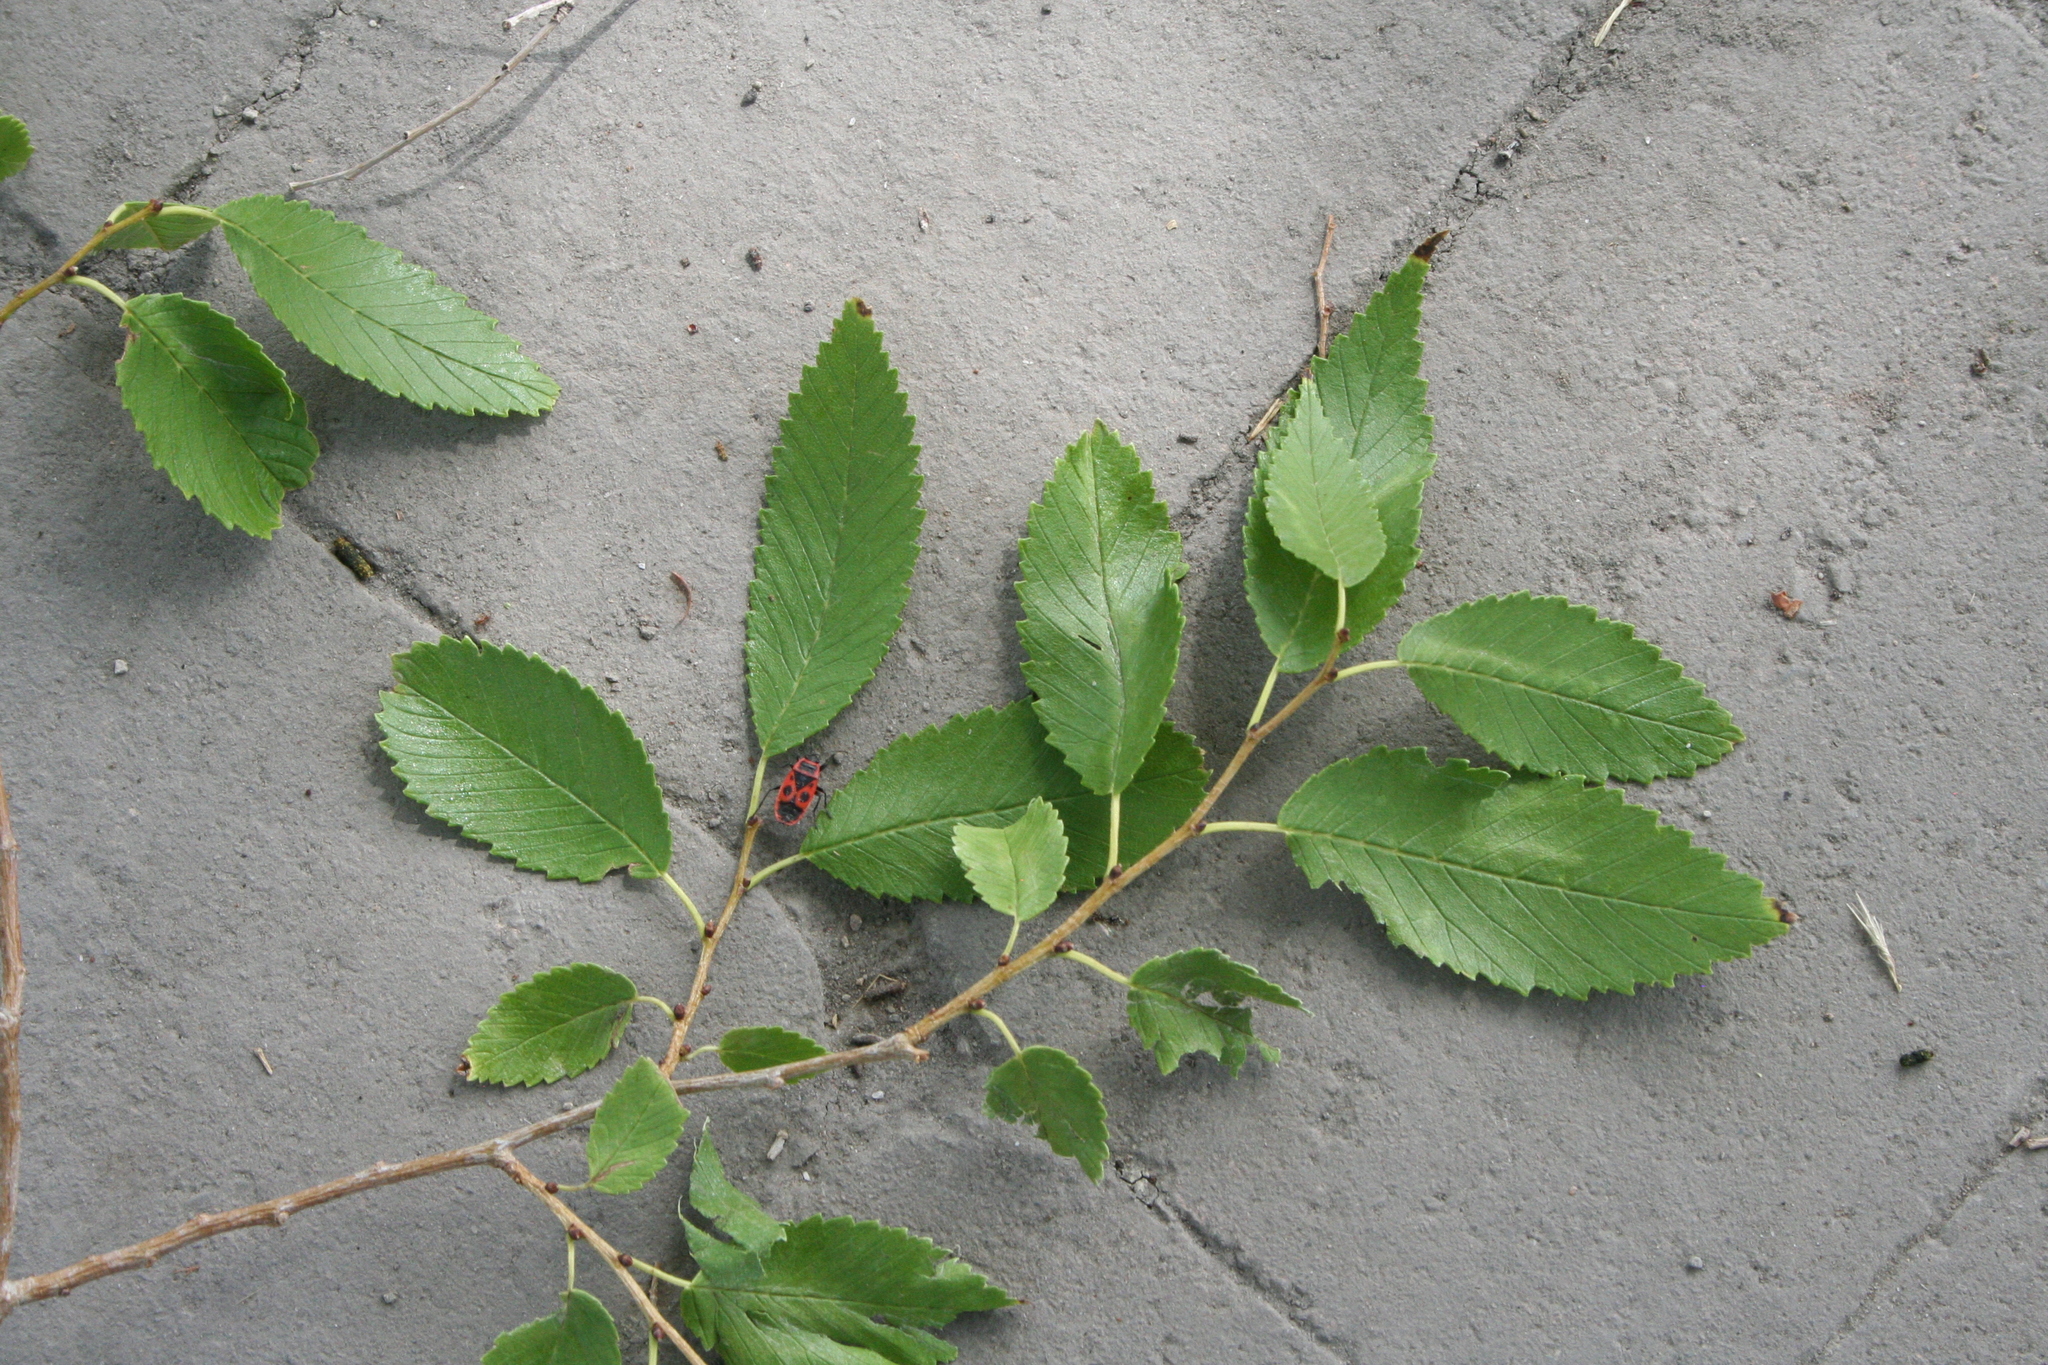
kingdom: Animalia
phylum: Arthropoda
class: Insecta
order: Hemiptera
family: Pyrrhocoridae
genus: Pyrrhocoris
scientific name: Pyrrhocoris apterus
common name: Firebug
